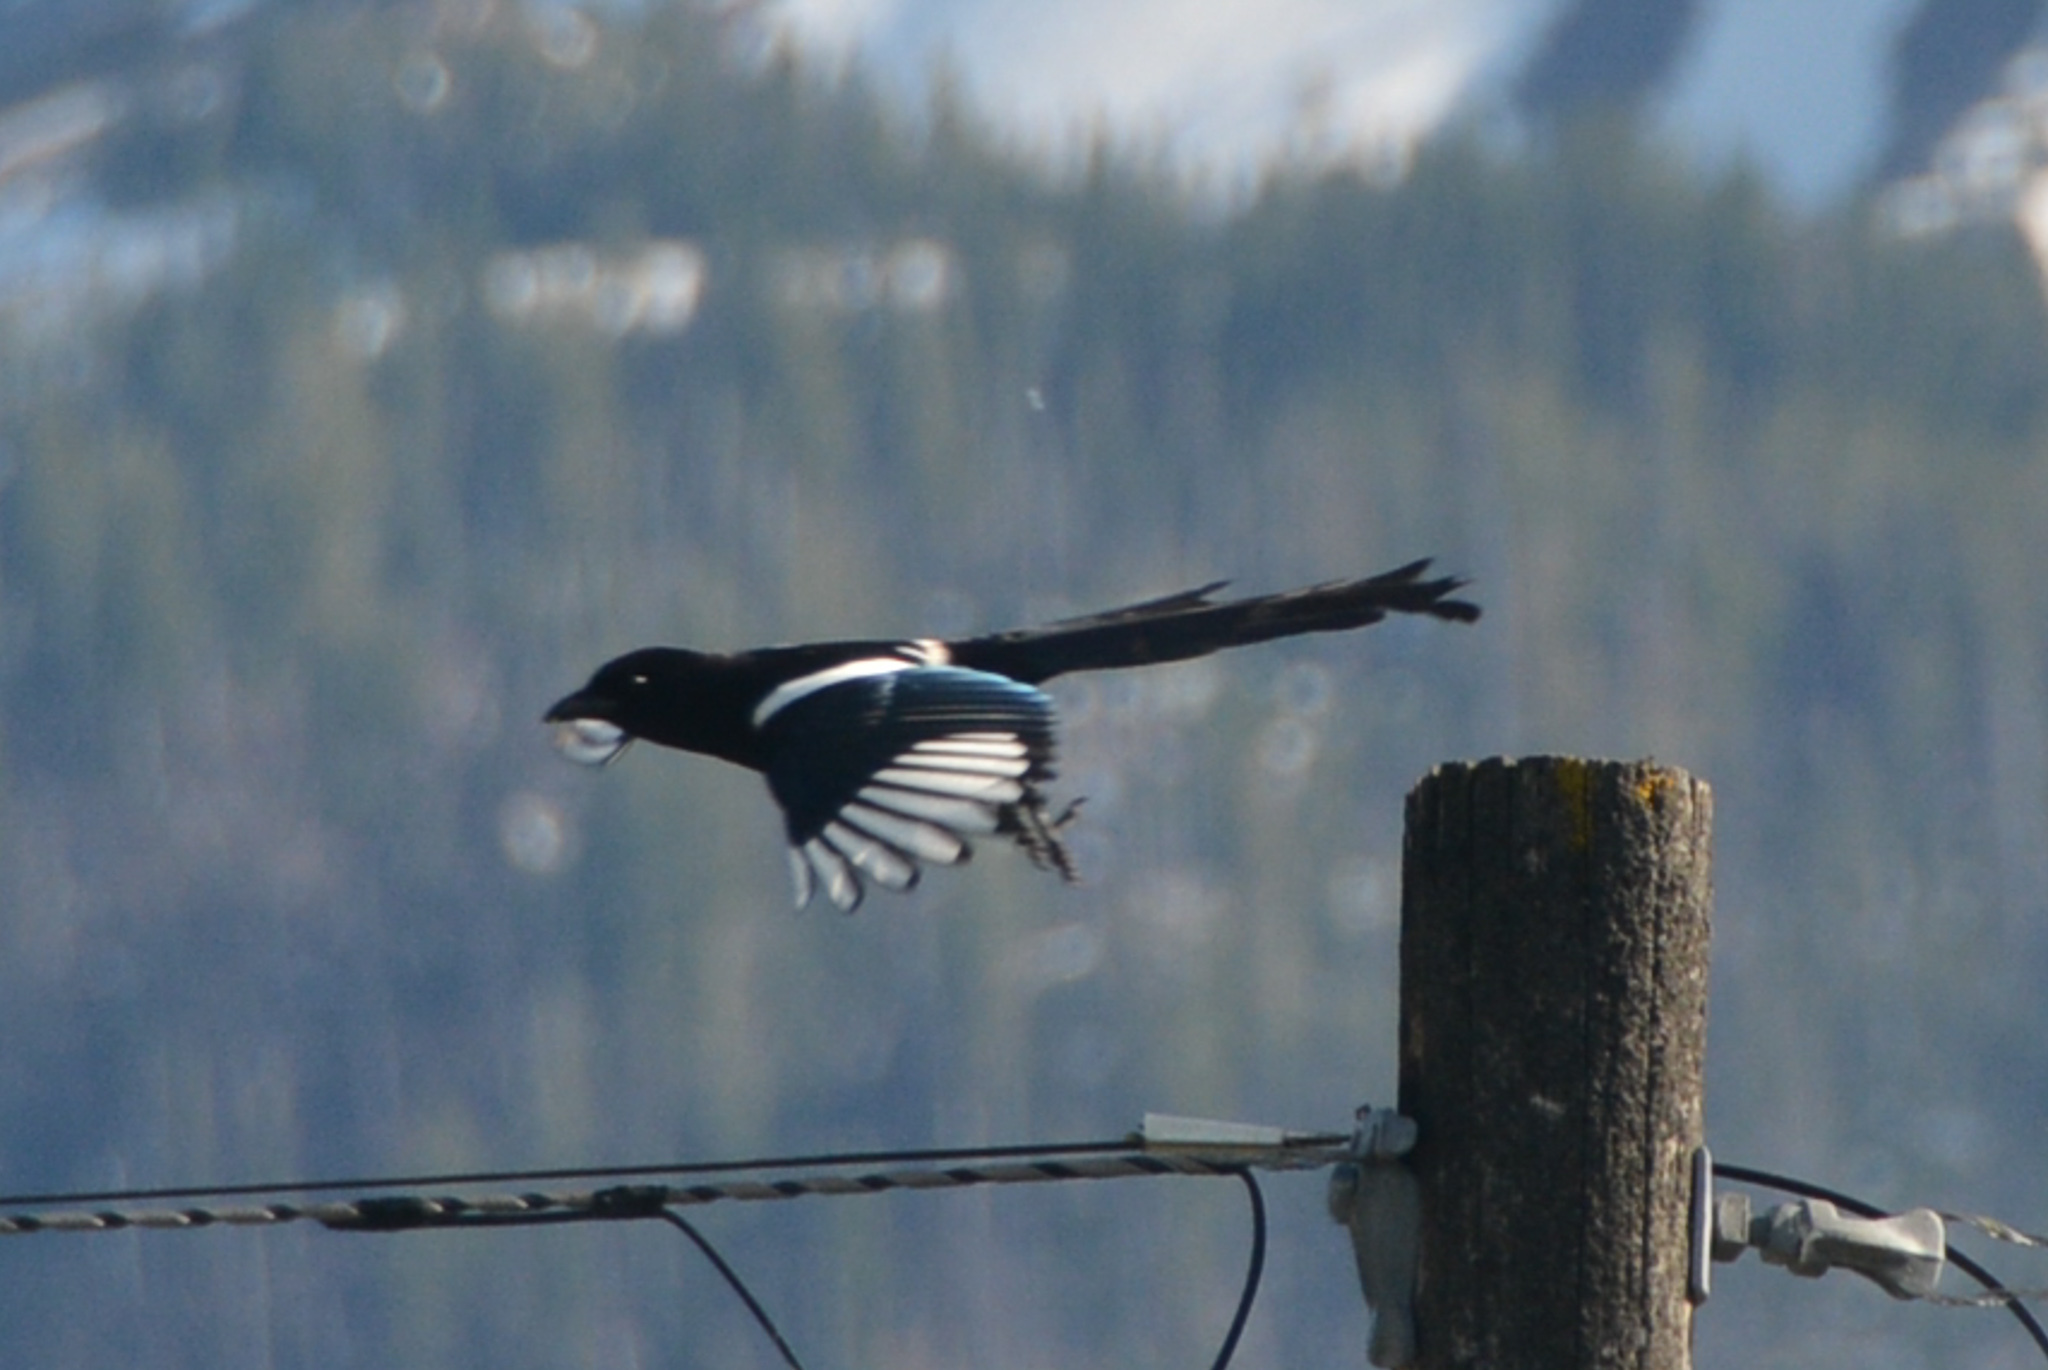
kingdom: Animalia
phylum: Chordata
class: Aves
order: Passeriformes
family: Corvidae
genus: Pica
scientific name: Pica hudsonia
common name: Black-billed magpie
